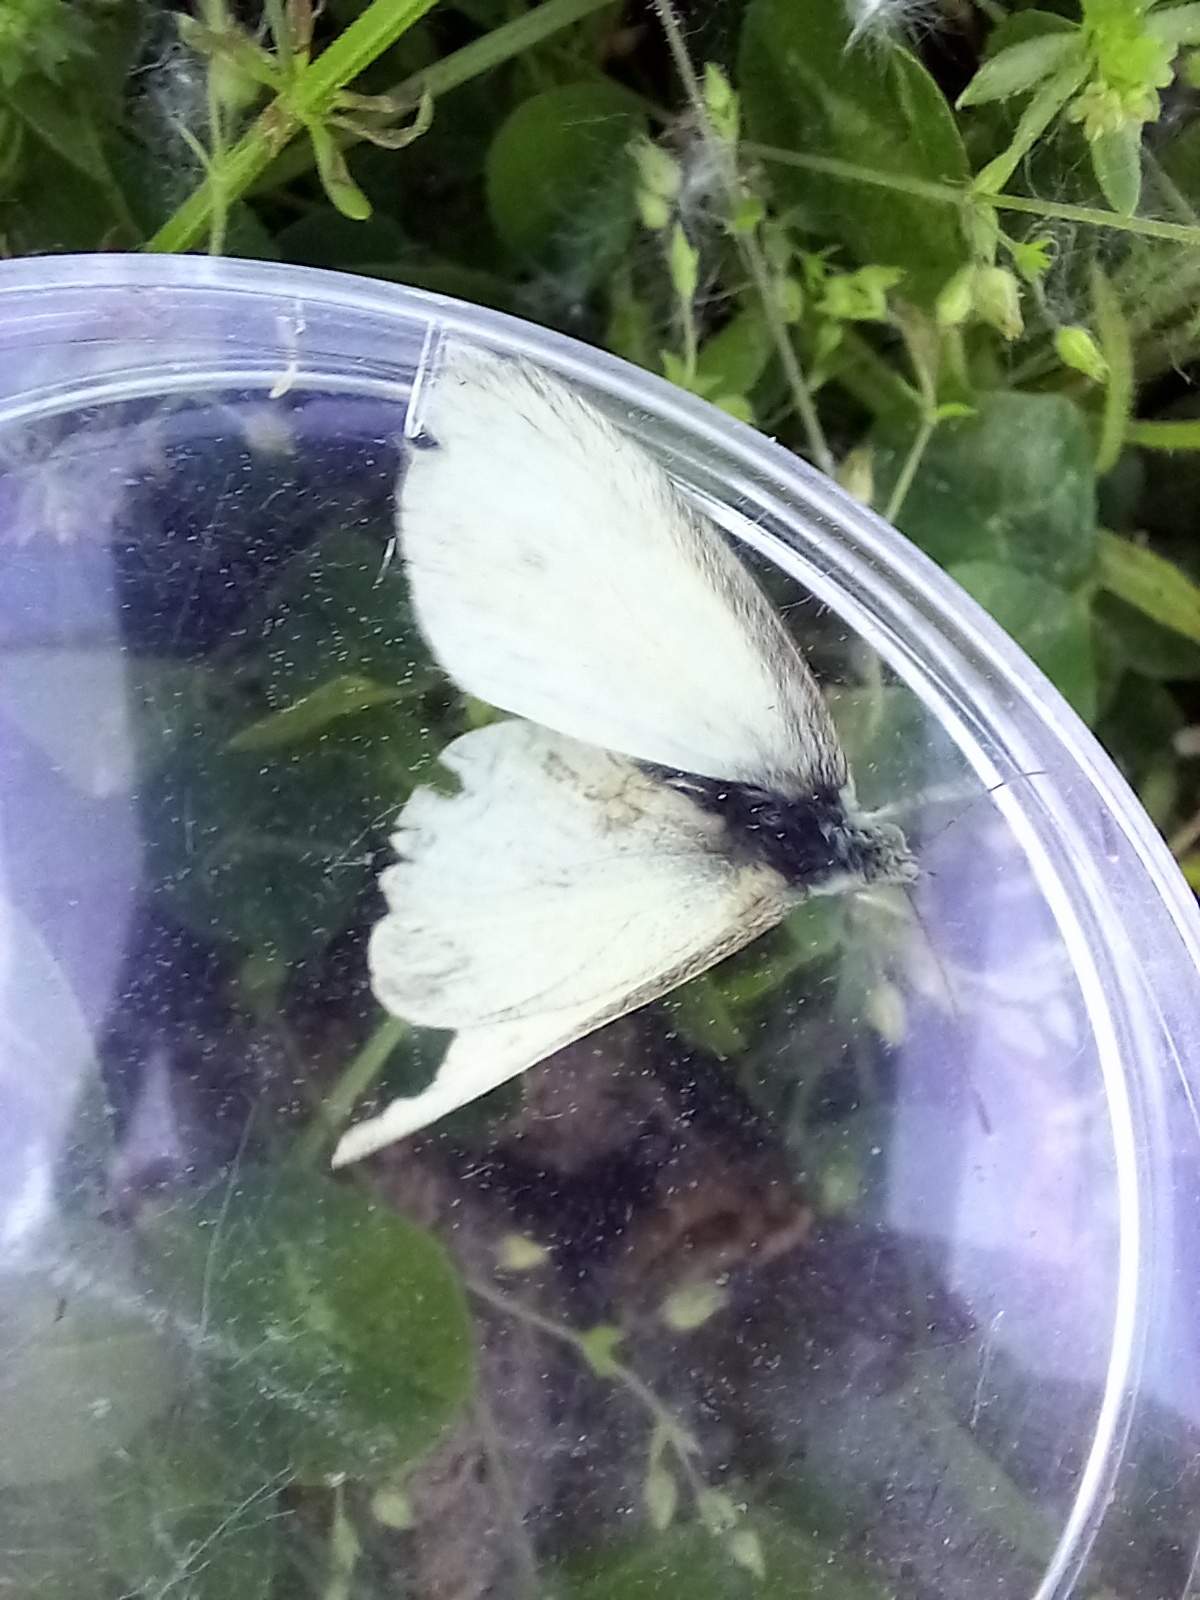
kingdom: Animalia
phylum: Arthropoda
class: Insecta
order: Lepidoptera
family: Pieridae
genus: Pieris
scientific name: Pieris rapae
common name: Small white
